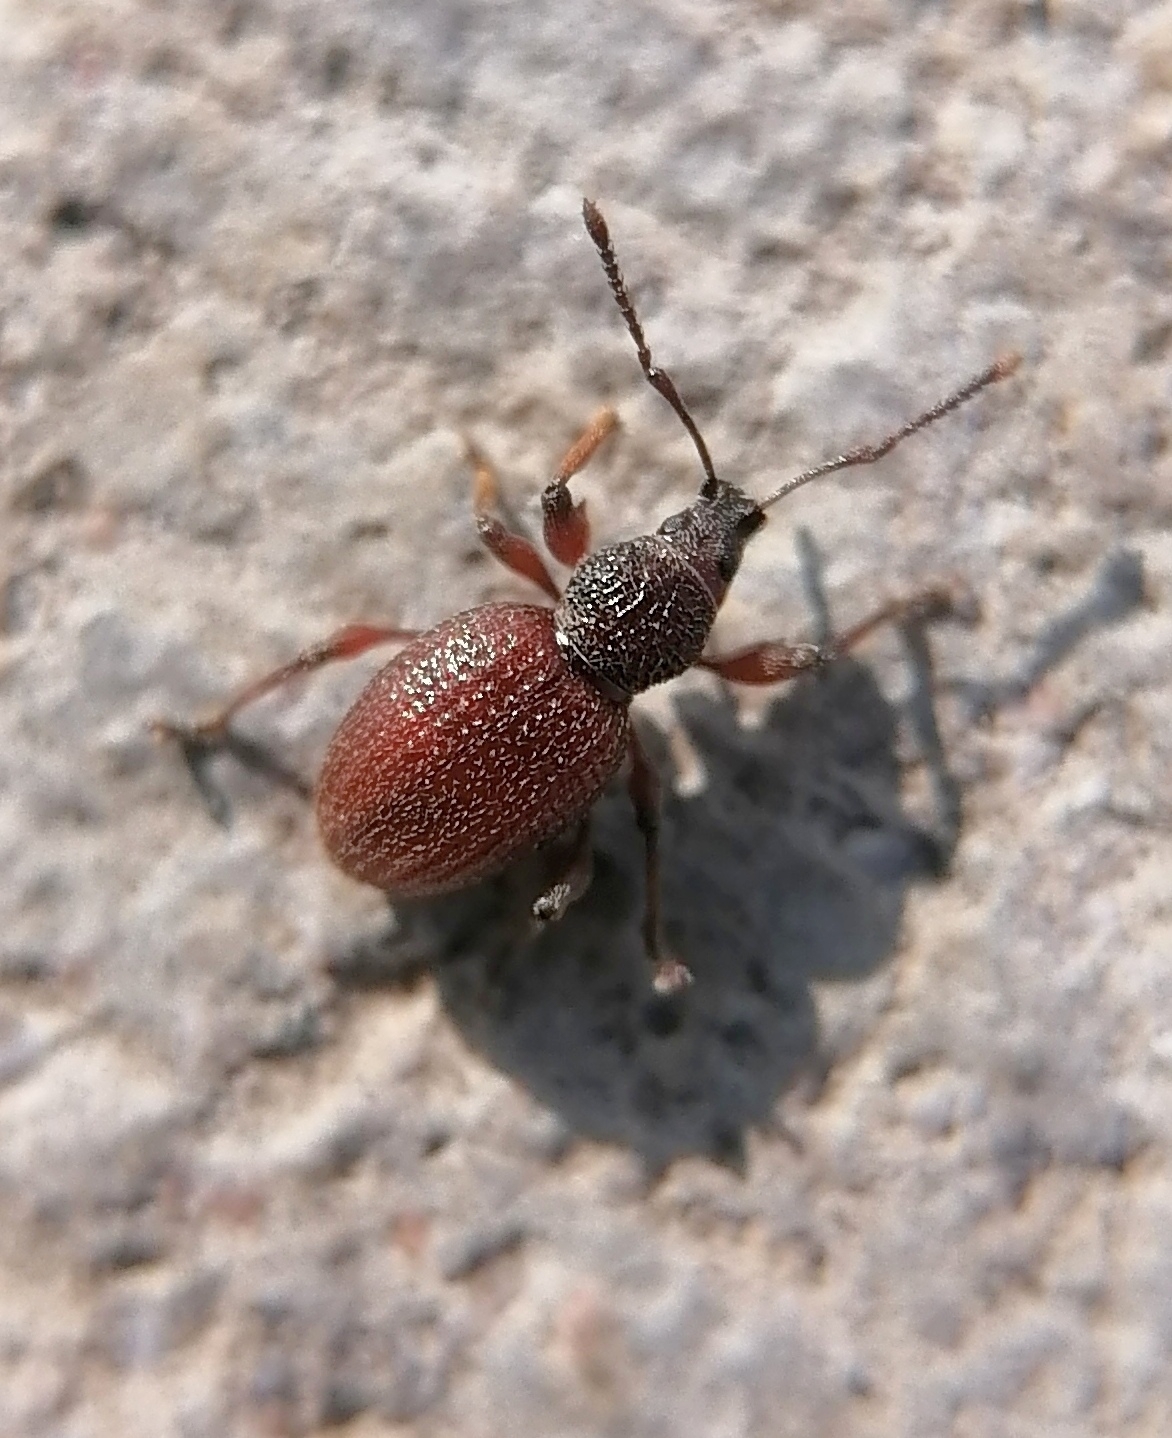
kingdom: Animalia
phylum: Arthropoda
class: Insecta
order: Coleoptera
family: Curculionidae
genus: Otiorhynchus
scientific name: Otiorhynchus ovatus
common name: Strawberry root weevil
